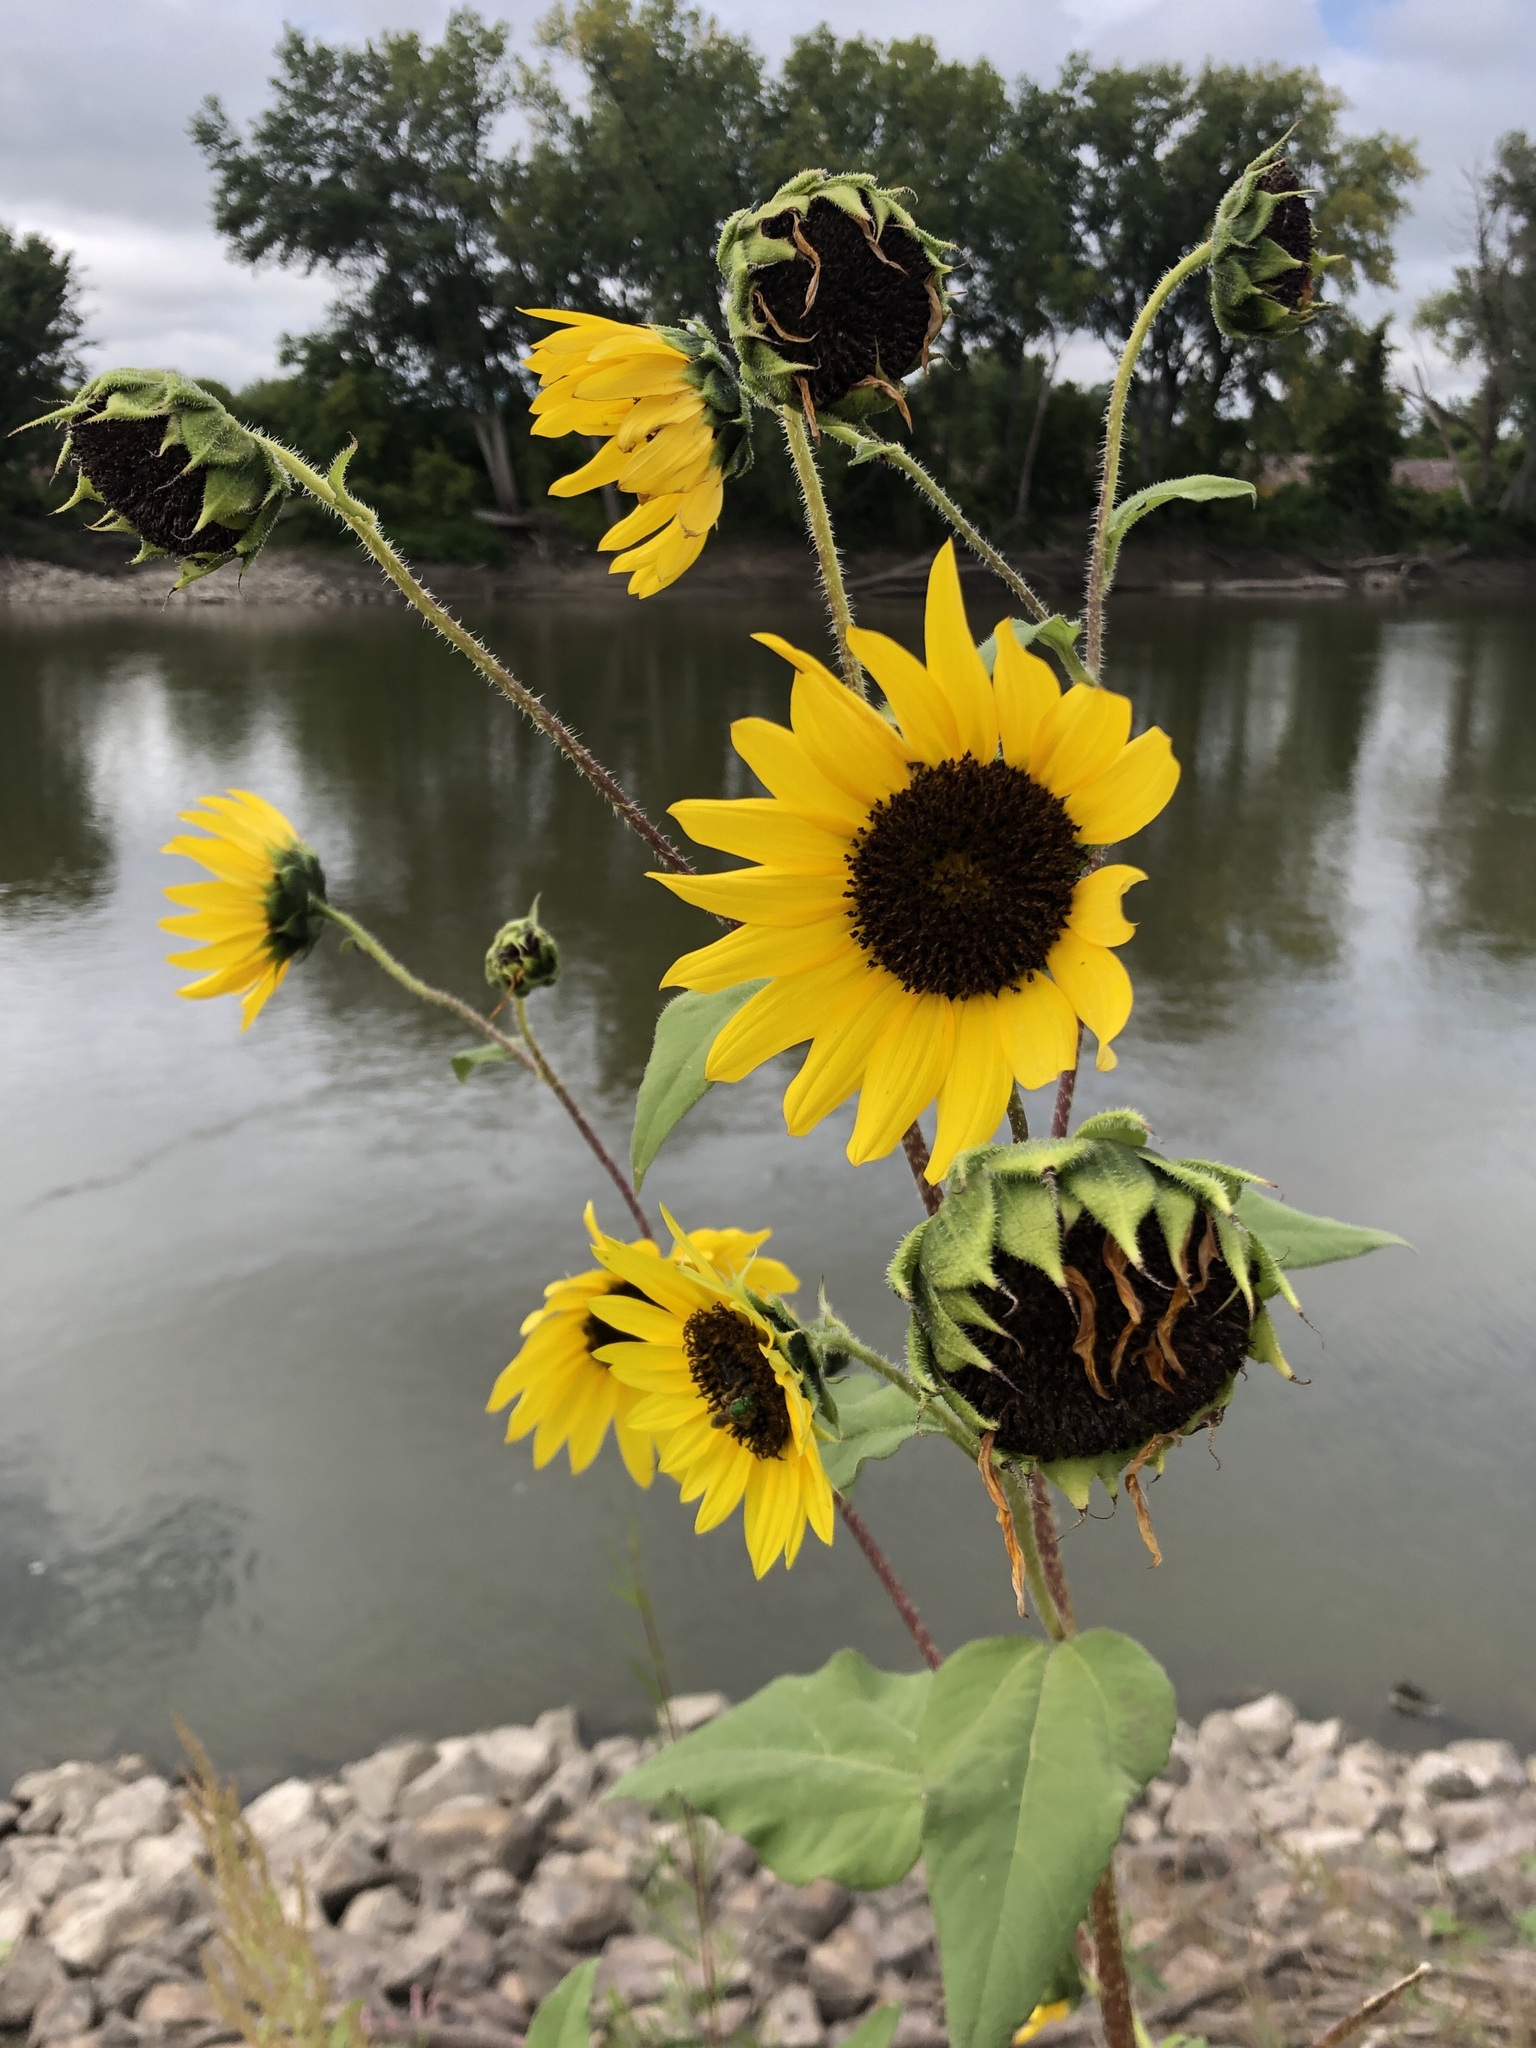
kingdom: Plantae
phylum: Tracheophyta
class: Magnoliopsida
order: Asterales
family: Asteraceae
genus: Helianthus
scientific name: Helianthus annuus
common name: Sunflower
